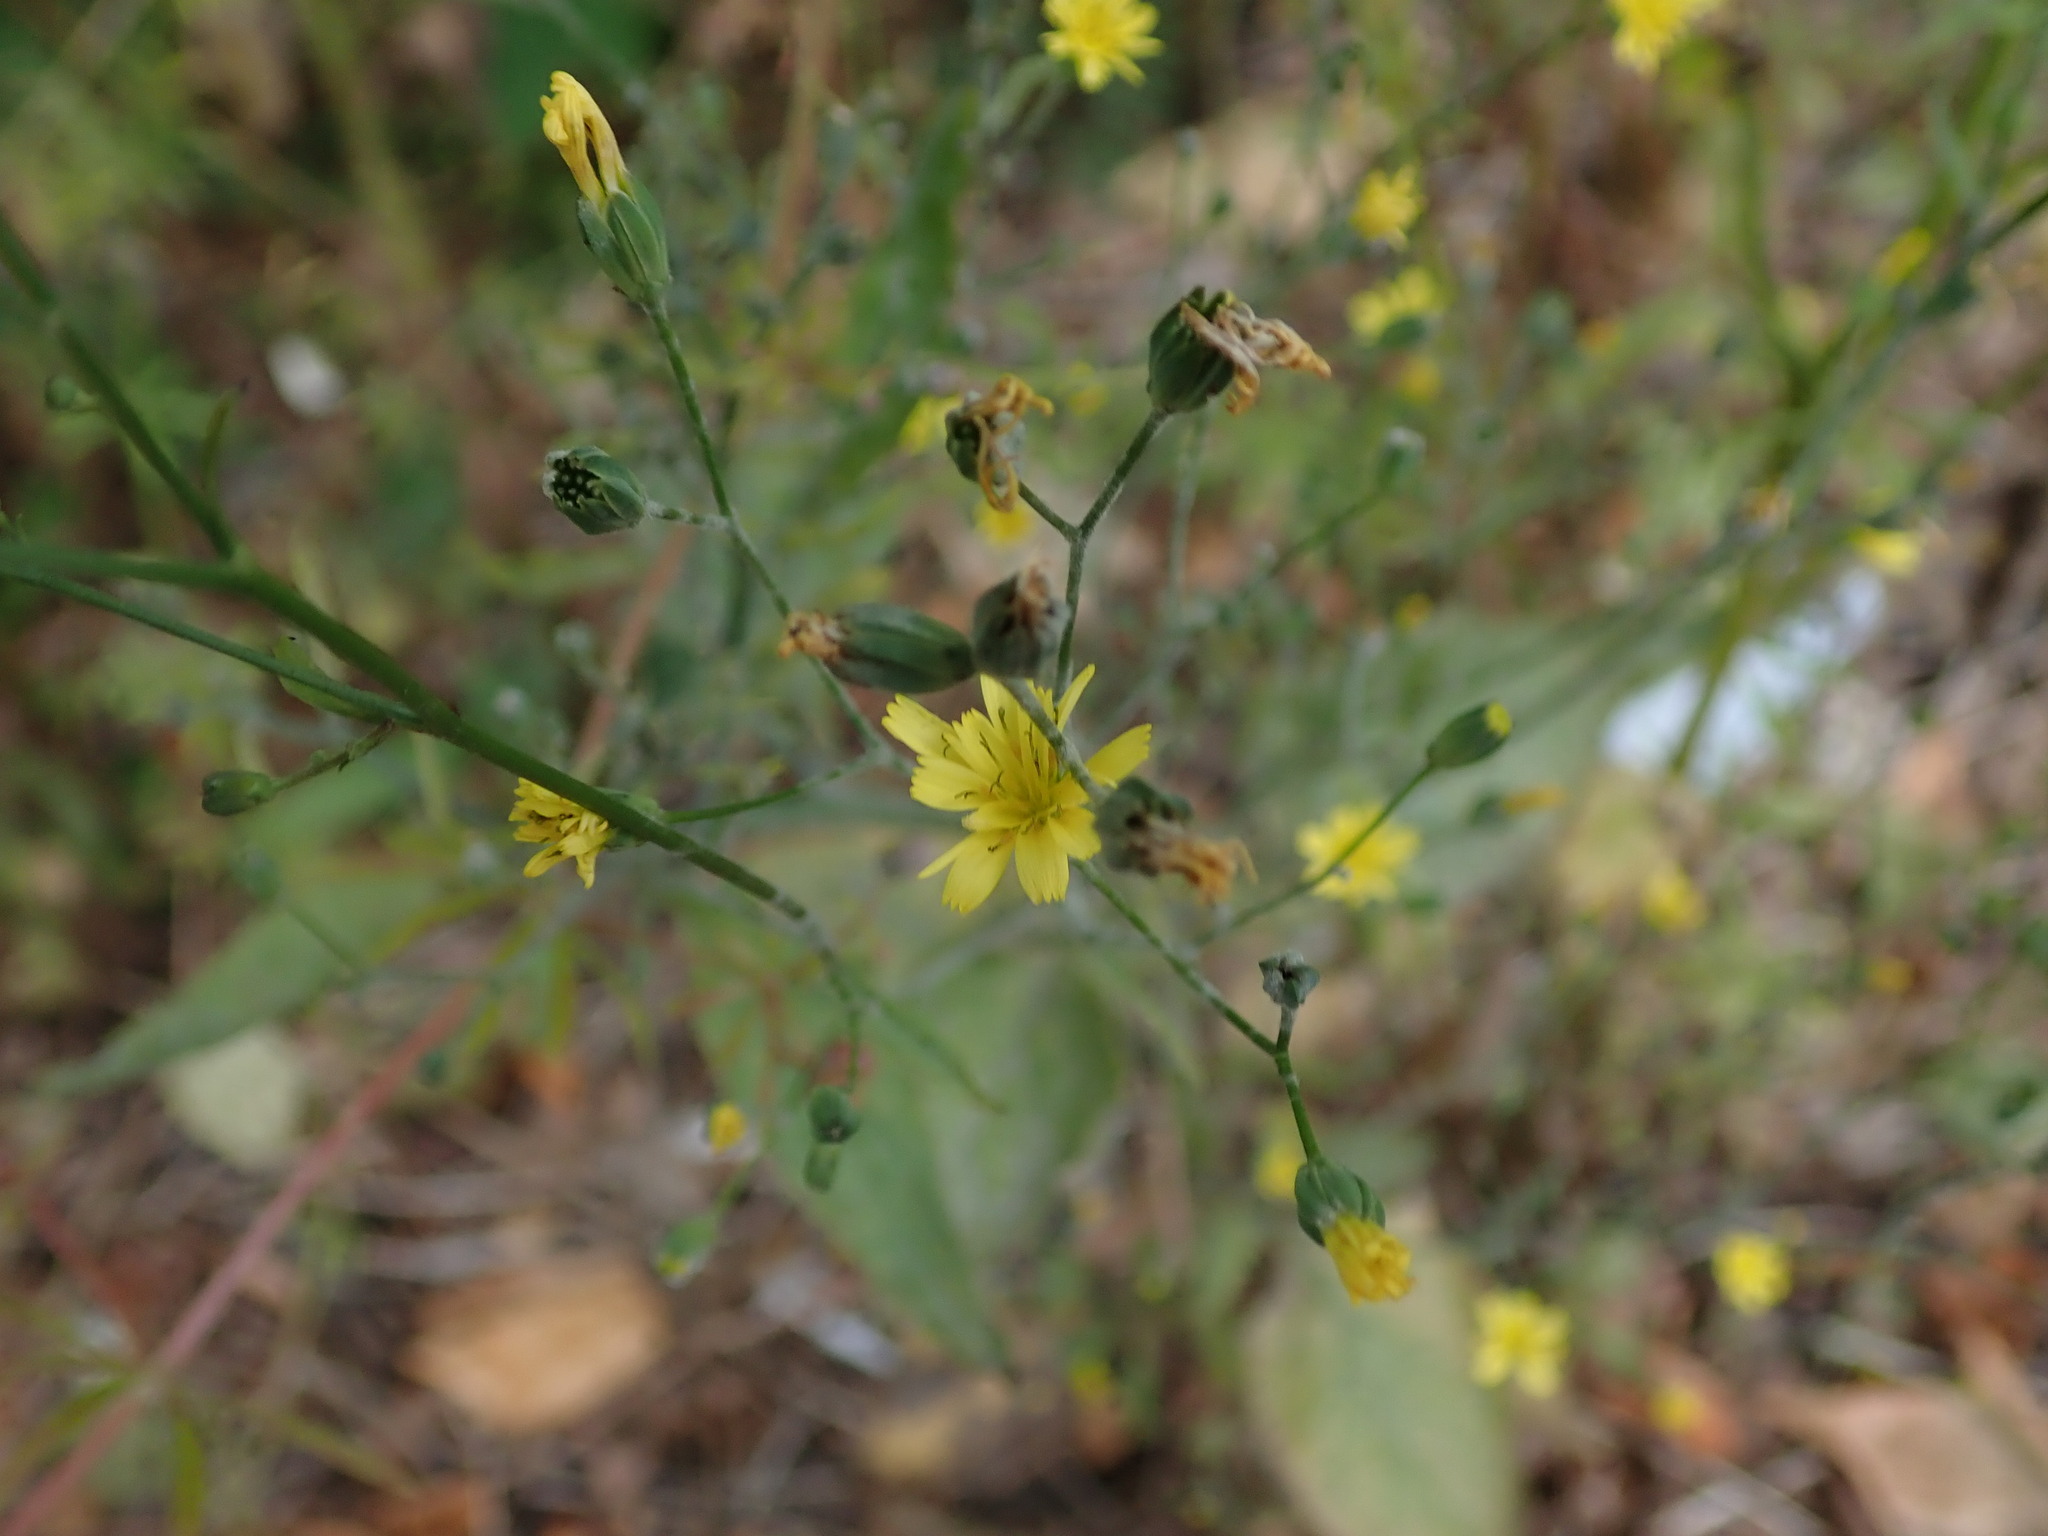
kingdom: Plantae
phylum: Tracheophyta
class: Magnoliopsida
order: Asterales
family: Asteraceae
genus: Lapsana
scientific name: Lapsana communis
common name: Nipplewort
